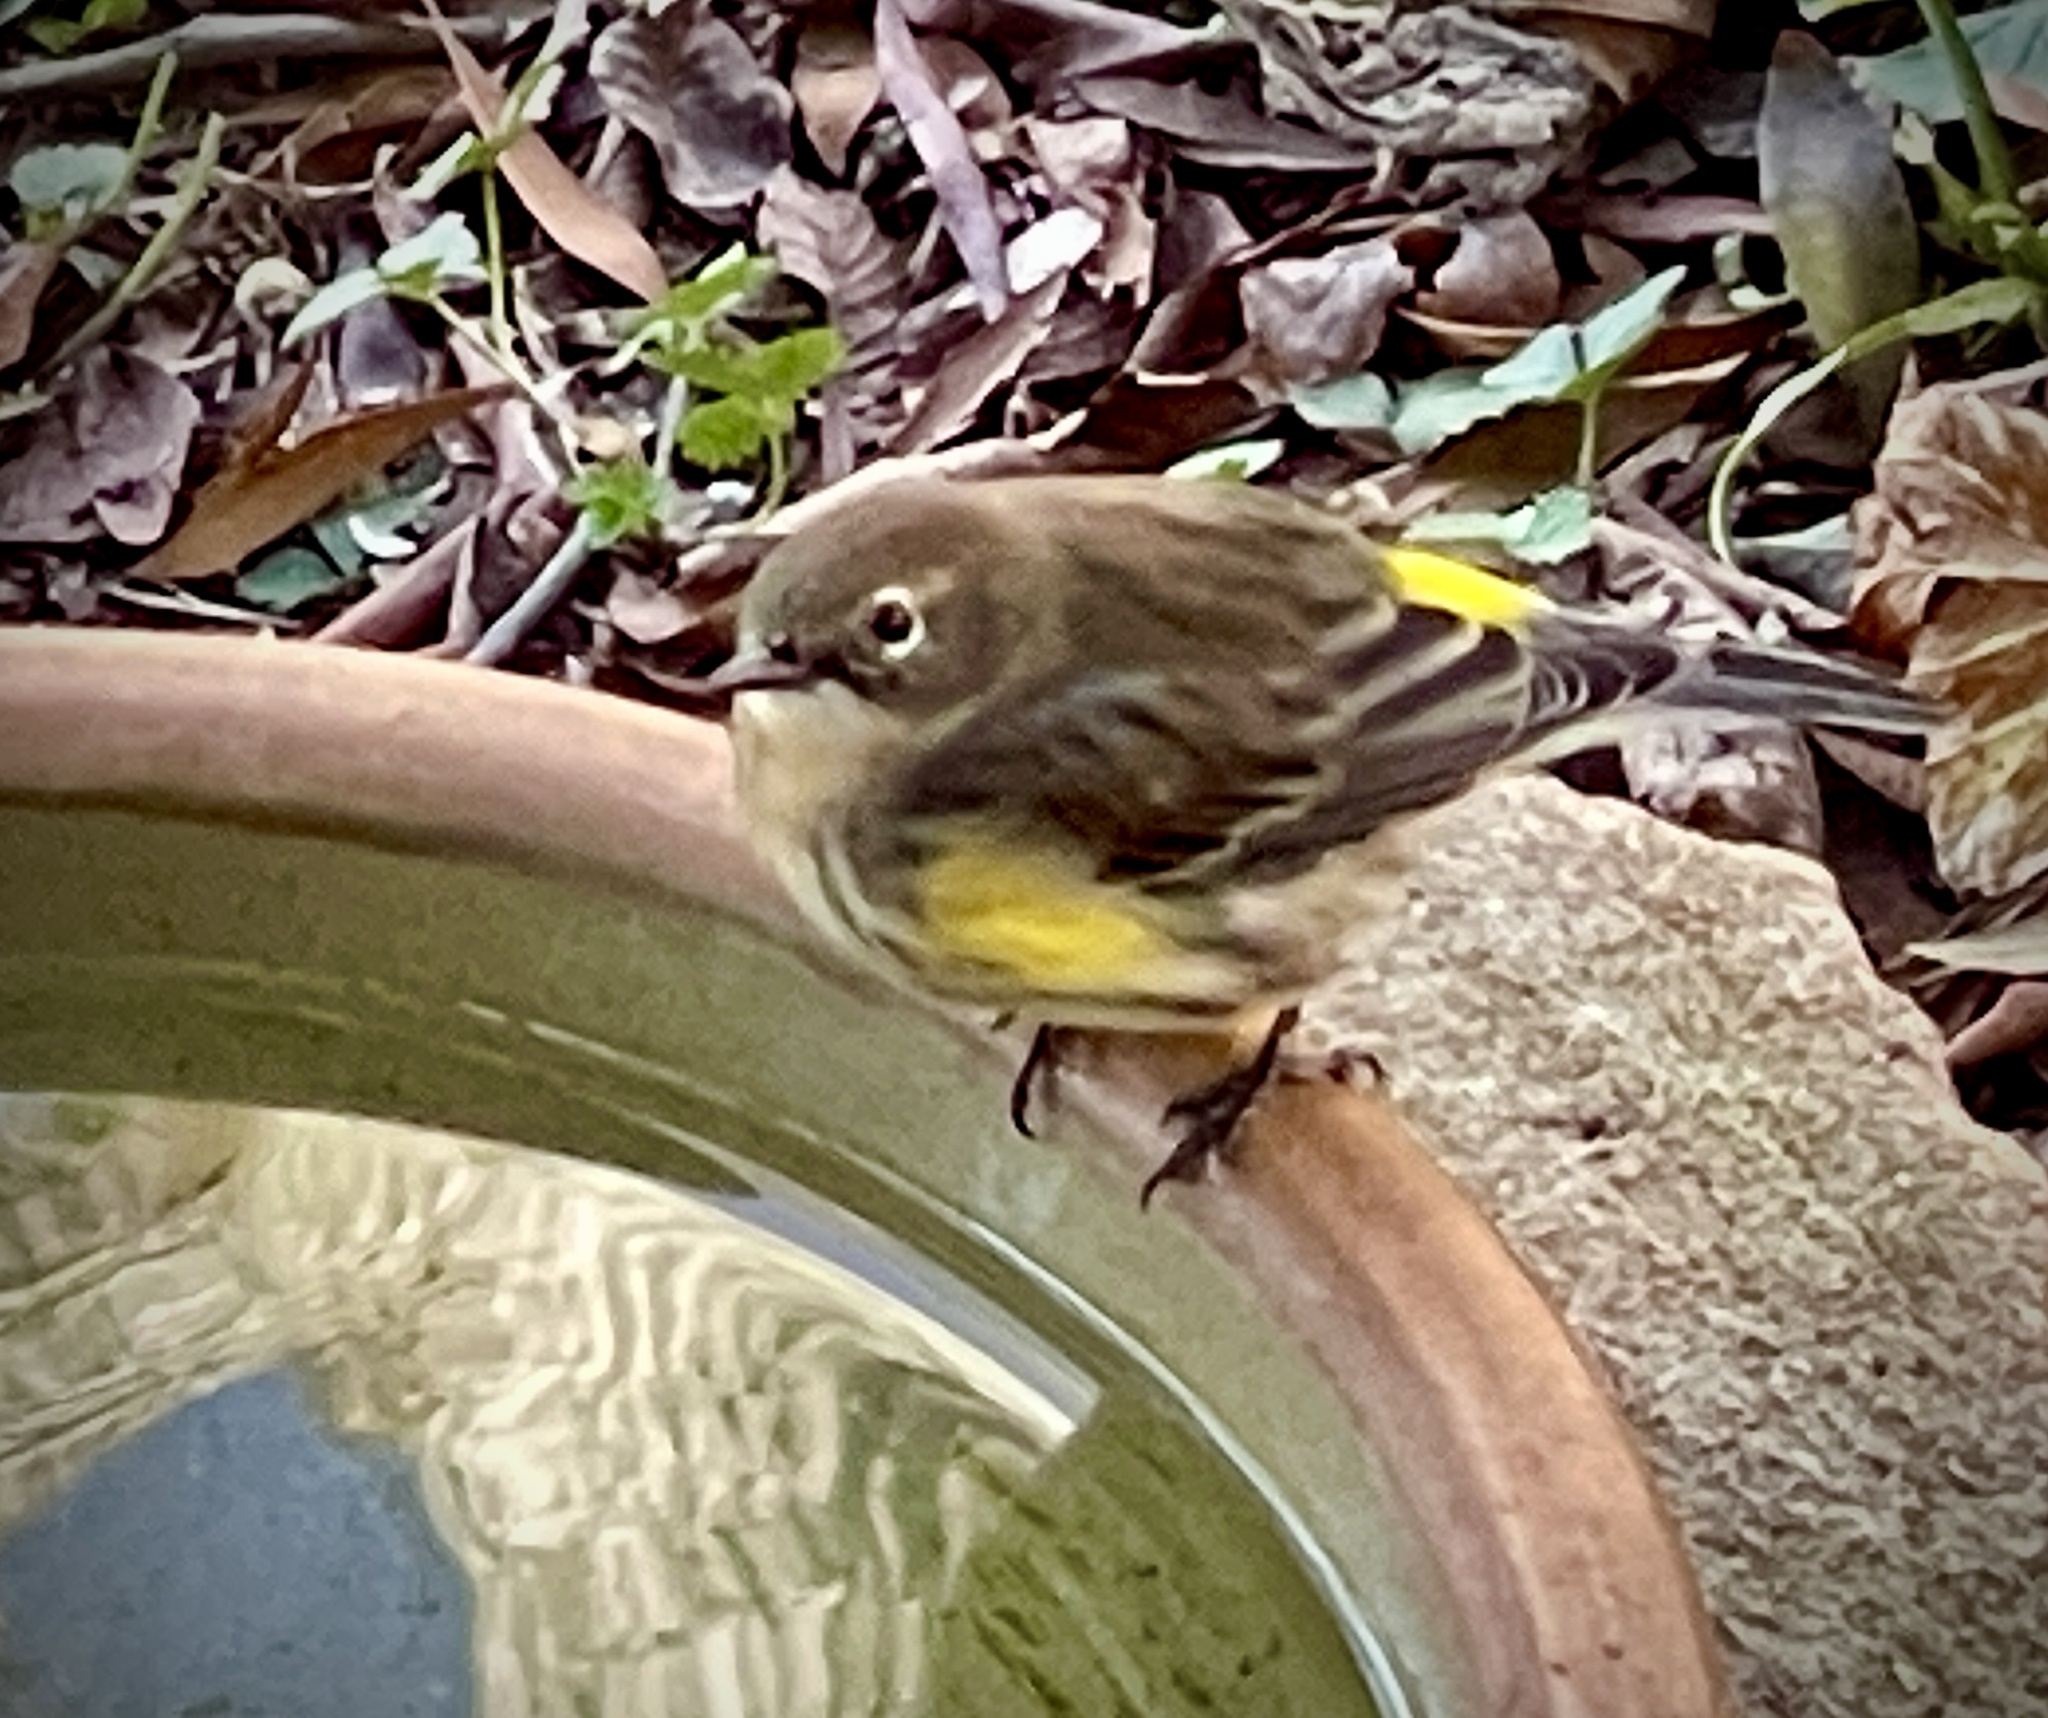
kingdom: Animalia
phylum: Chordata
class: Aves
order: Passeriformes
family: Parulidae
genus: Setophaga
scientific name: Setophaga coronata
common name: Myrtle warbler
